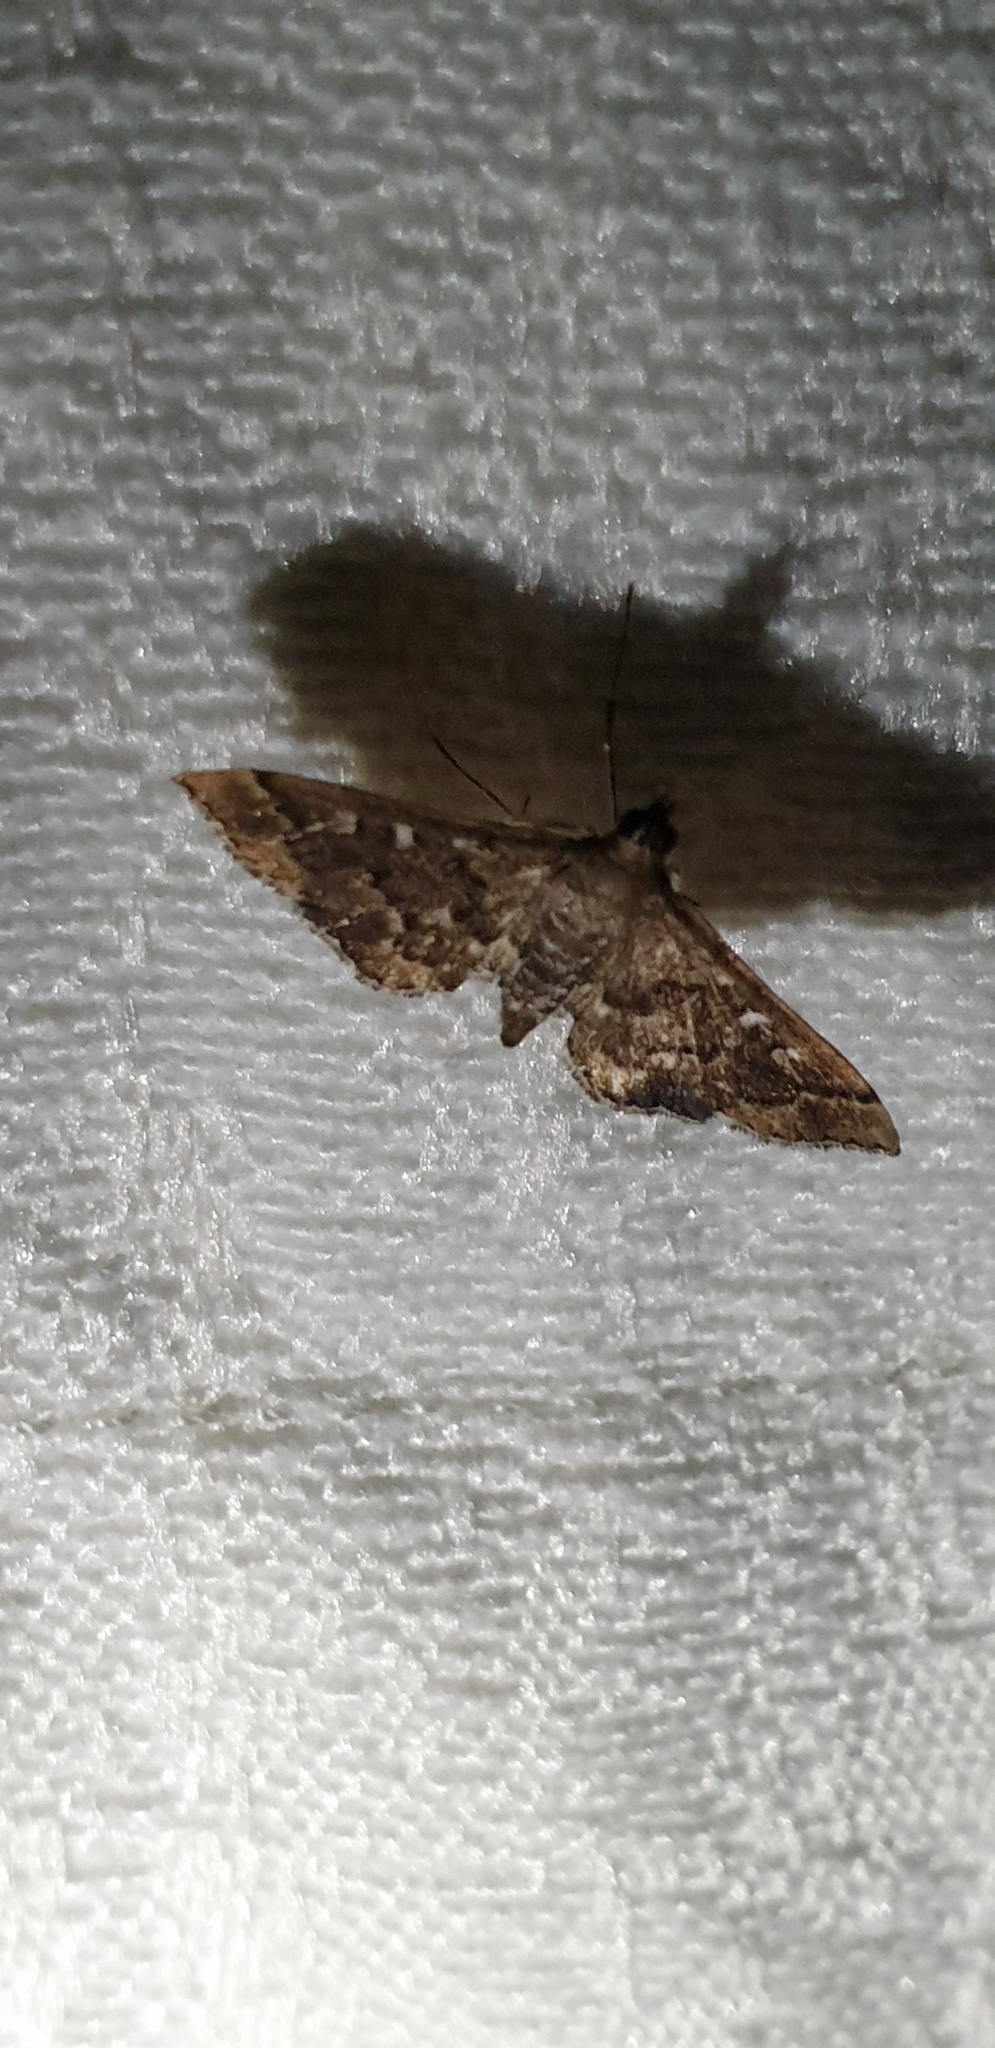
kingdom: Animalia
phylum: Arthropoda
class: Insecta
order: Lepidoptera
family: Crambidae
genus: Nacoleia
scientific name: Nacoleia rhoeoalis
